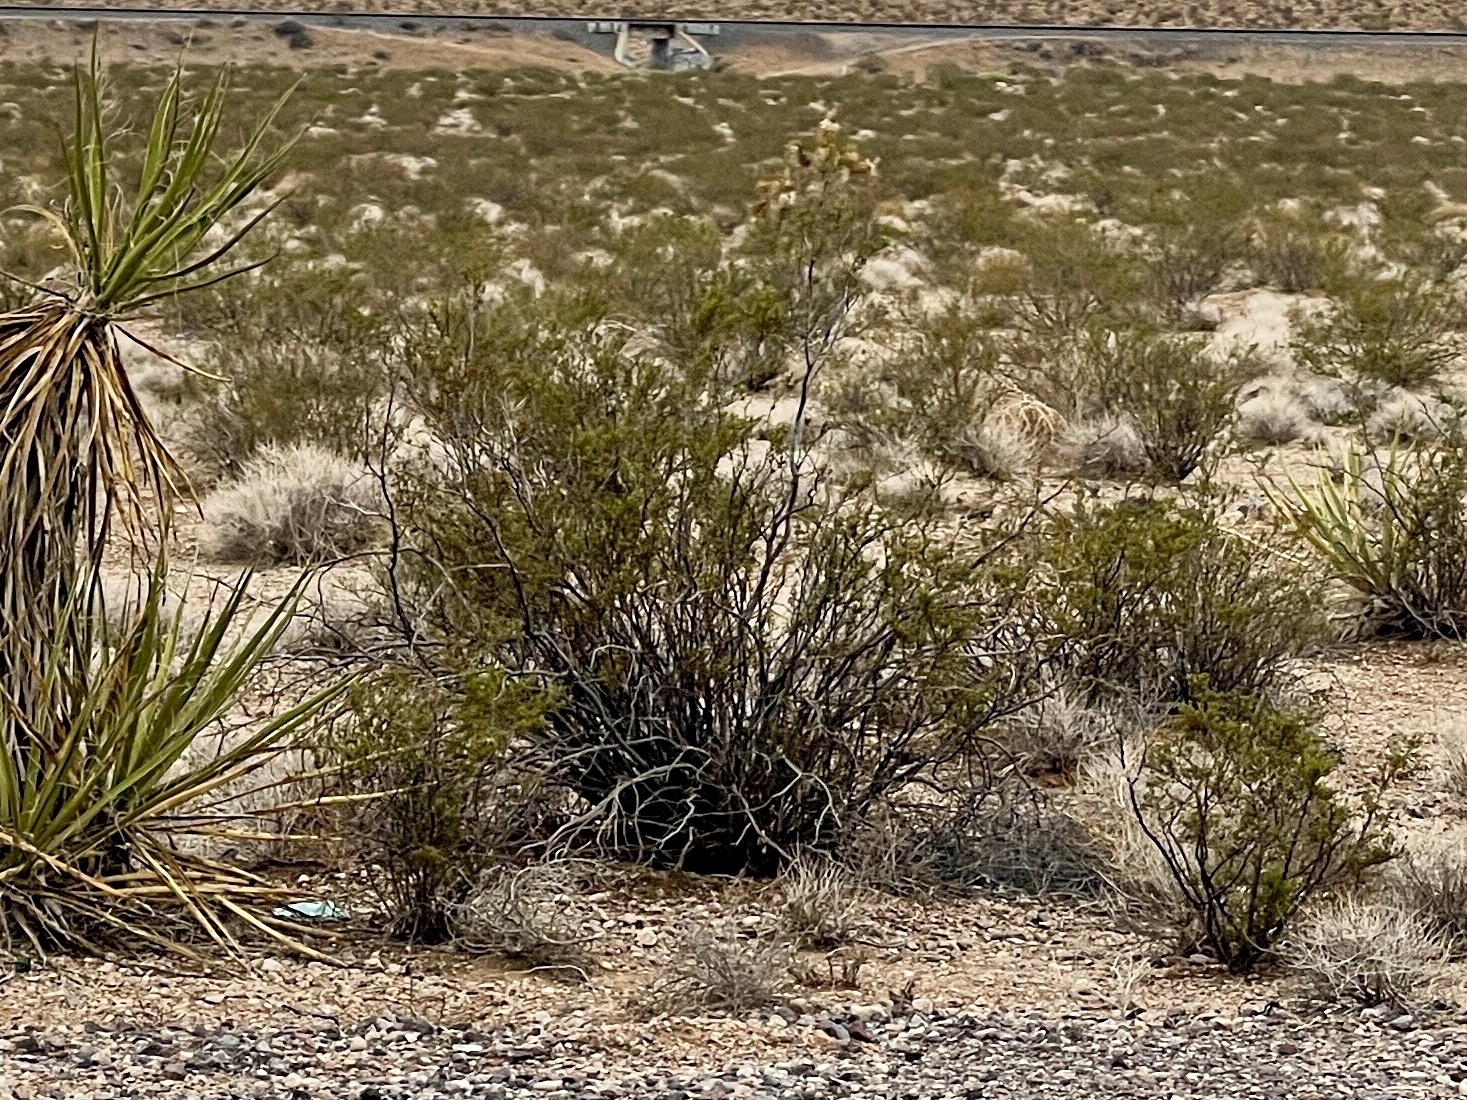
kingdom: Plantae
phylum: Tracheophyta
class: Magnoliopsida
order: Zygophyllales
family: Zygophyllaceae
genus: Larrea
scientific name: Larrea tridentata
